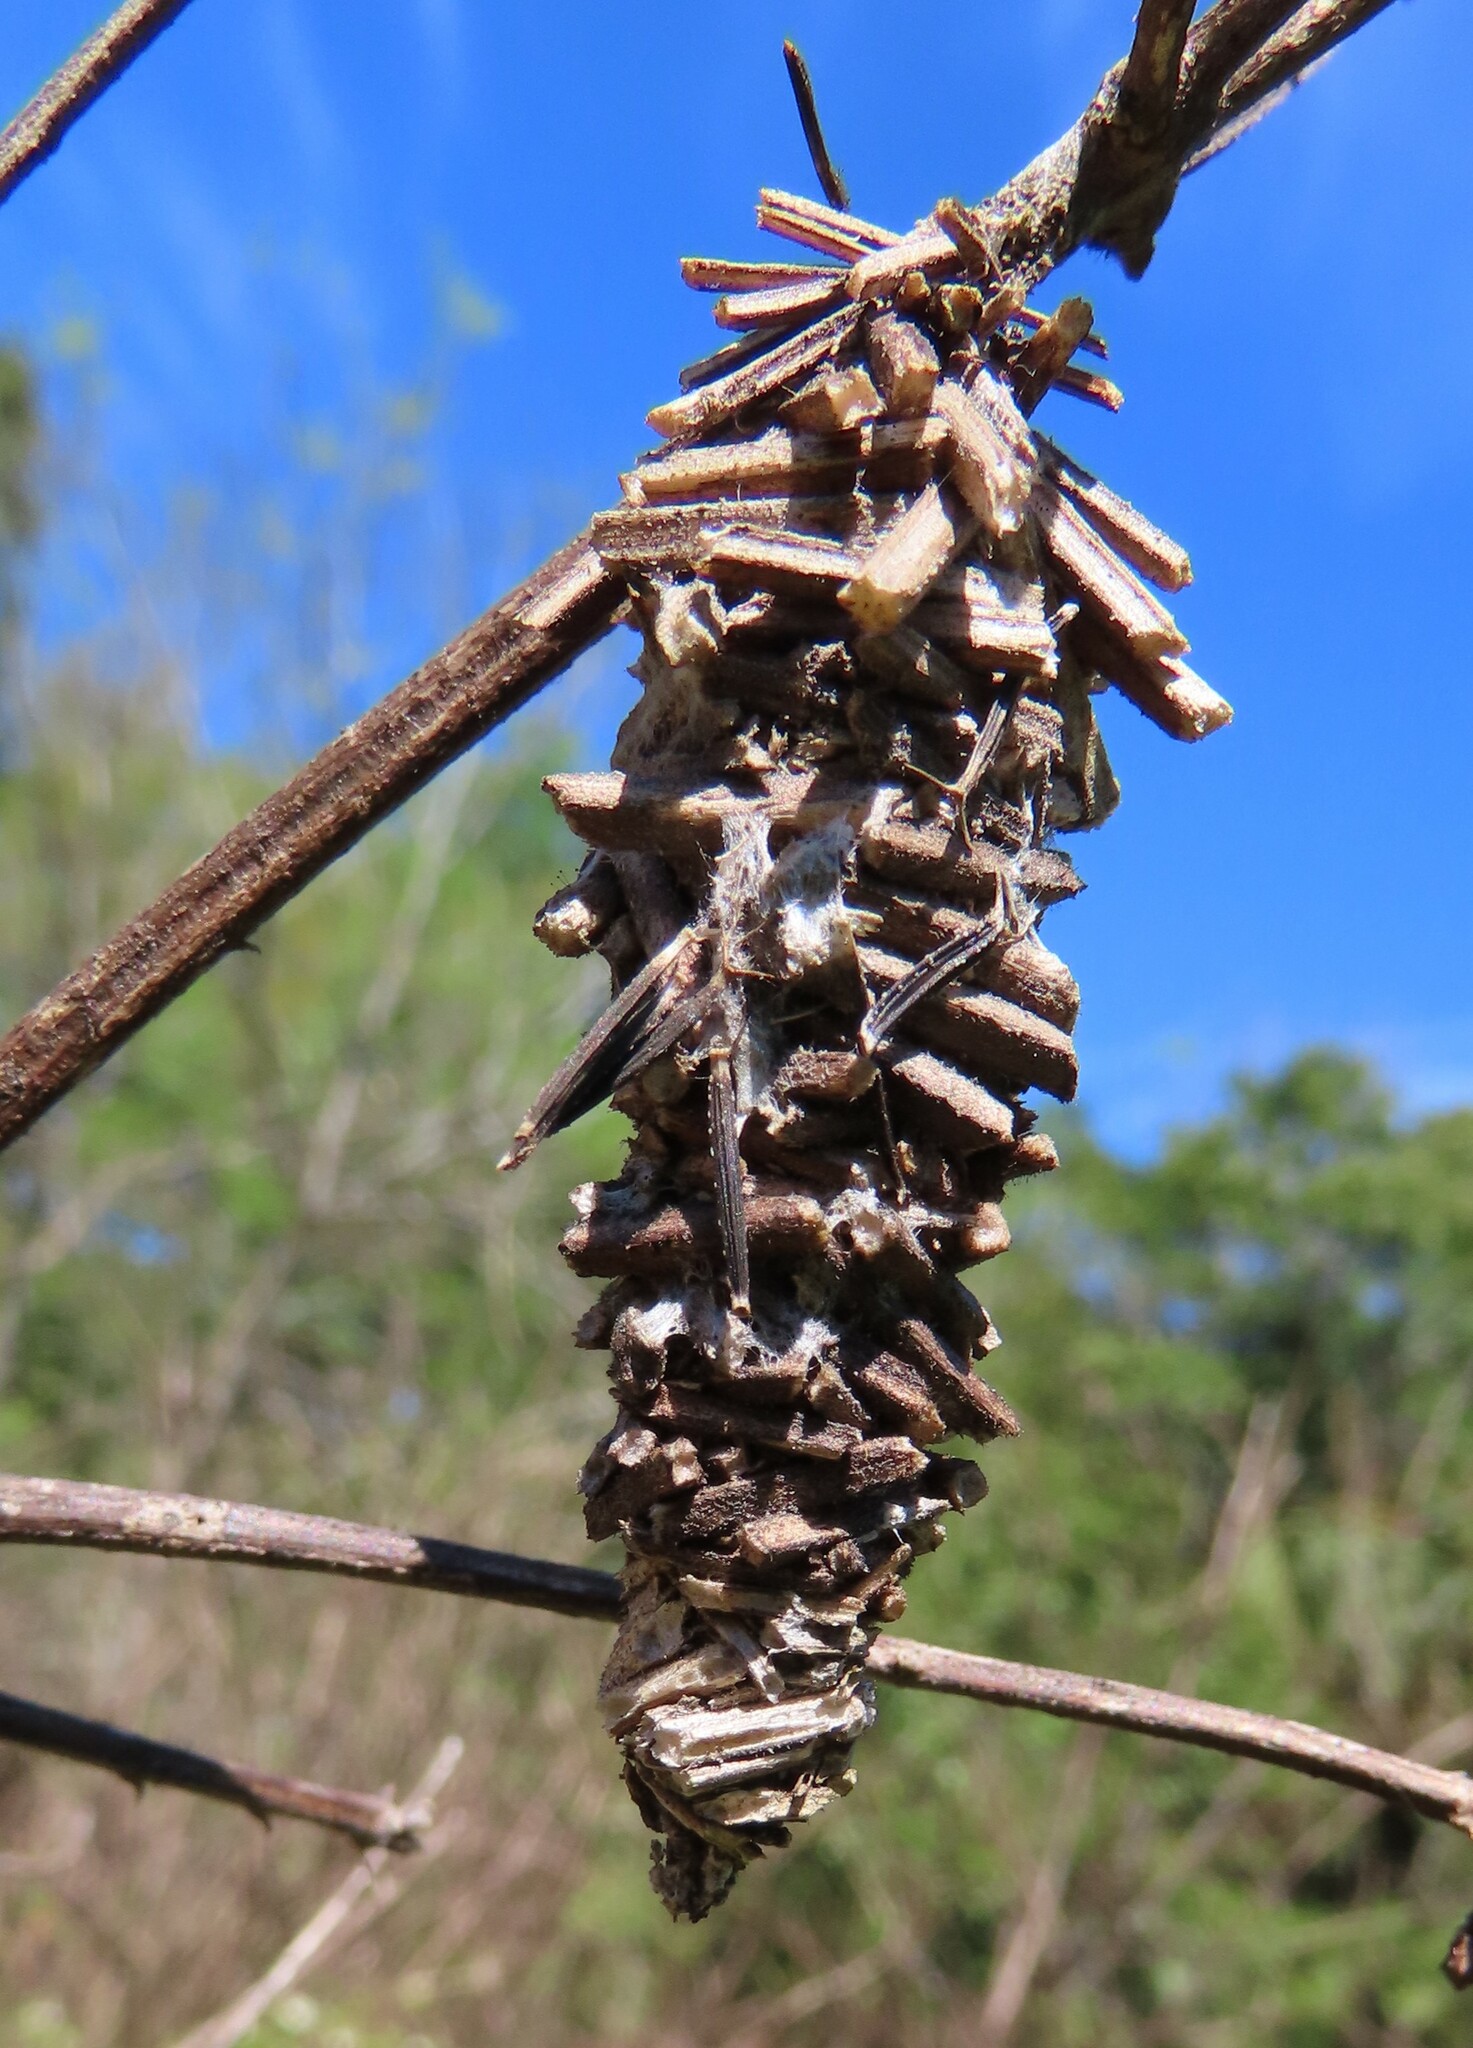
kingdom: Animalia
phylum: Arthropoda
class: Insecta
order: Lepidoptera
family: Psychidae
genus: Oiketicus
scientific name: Oiketicus
